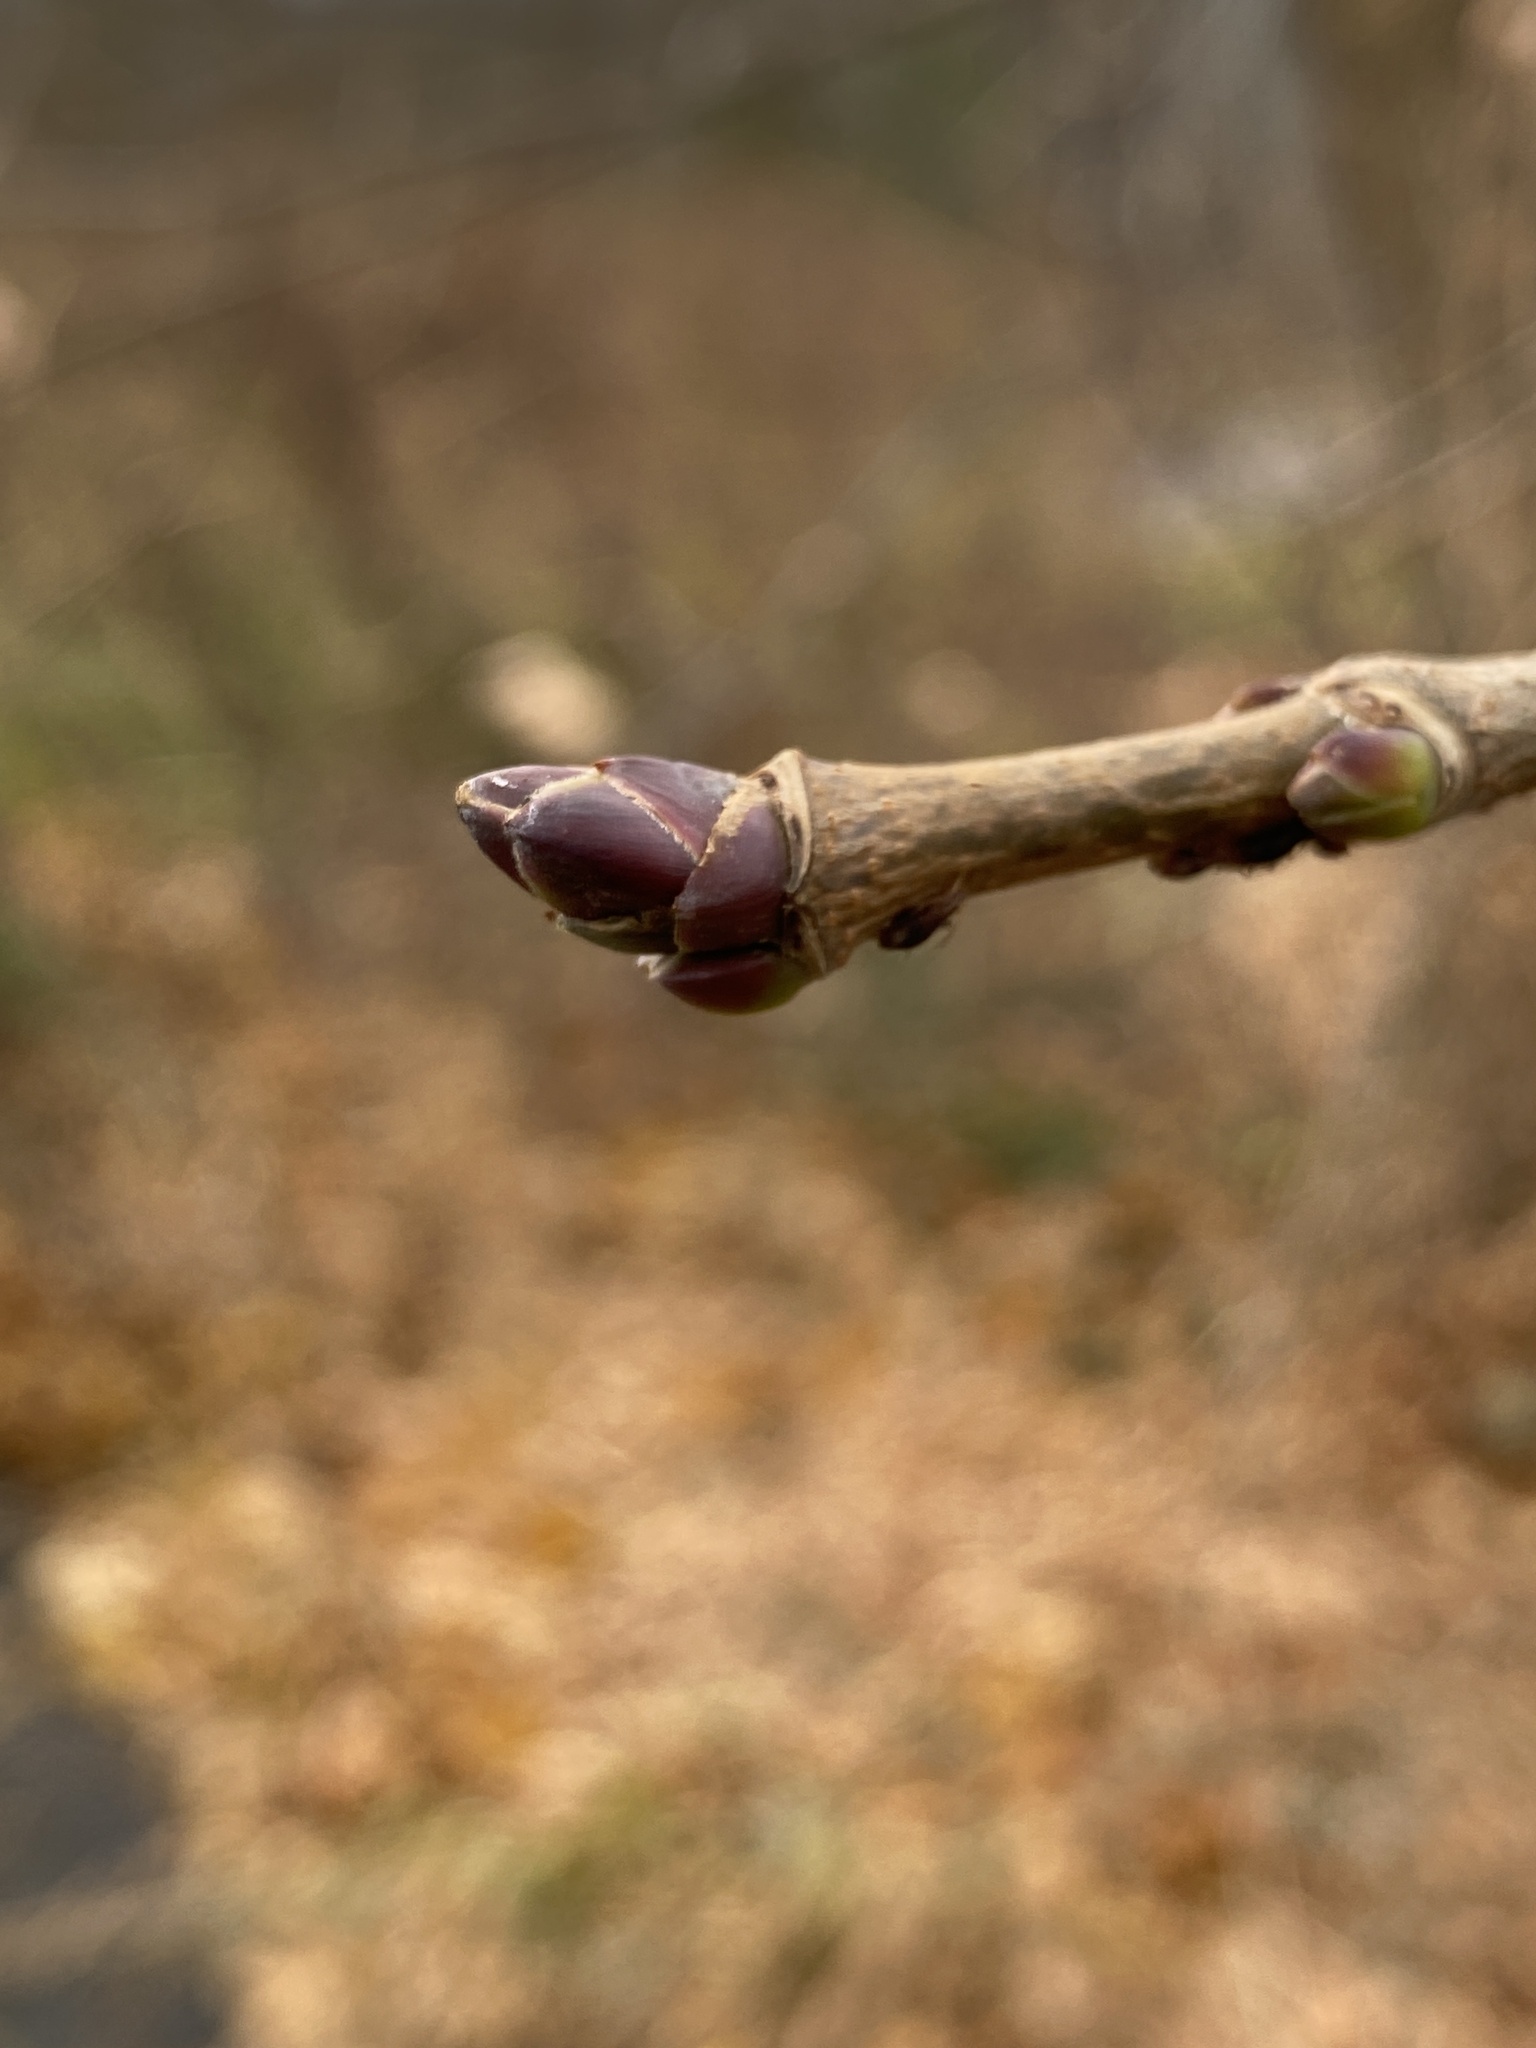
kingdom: Plantae
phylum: Tracheophyta
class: Magnoliopsida
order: Sapindales
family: Sapindaceae
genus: Acer
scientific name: Acer platanoides
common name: Norway maple
